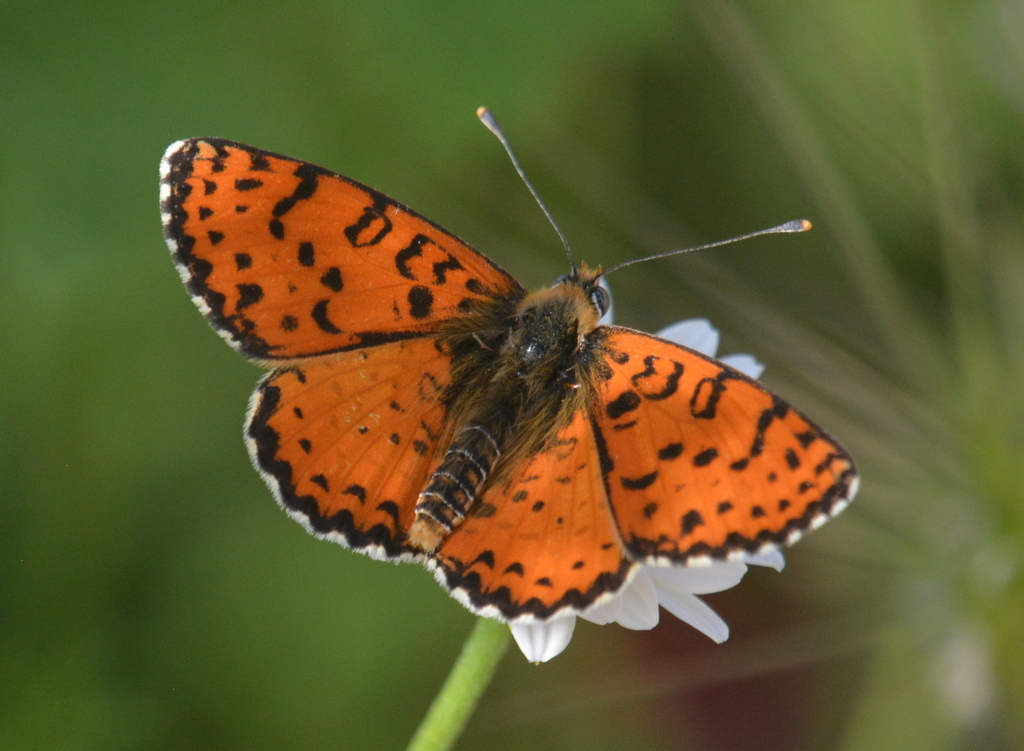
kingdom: Animalia
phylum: Arthropoda
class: Insecta
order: Lepidoptera
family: Nymphalidae
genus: Melitaea
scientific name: Melitaea didyma
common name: Spotted fritillary
